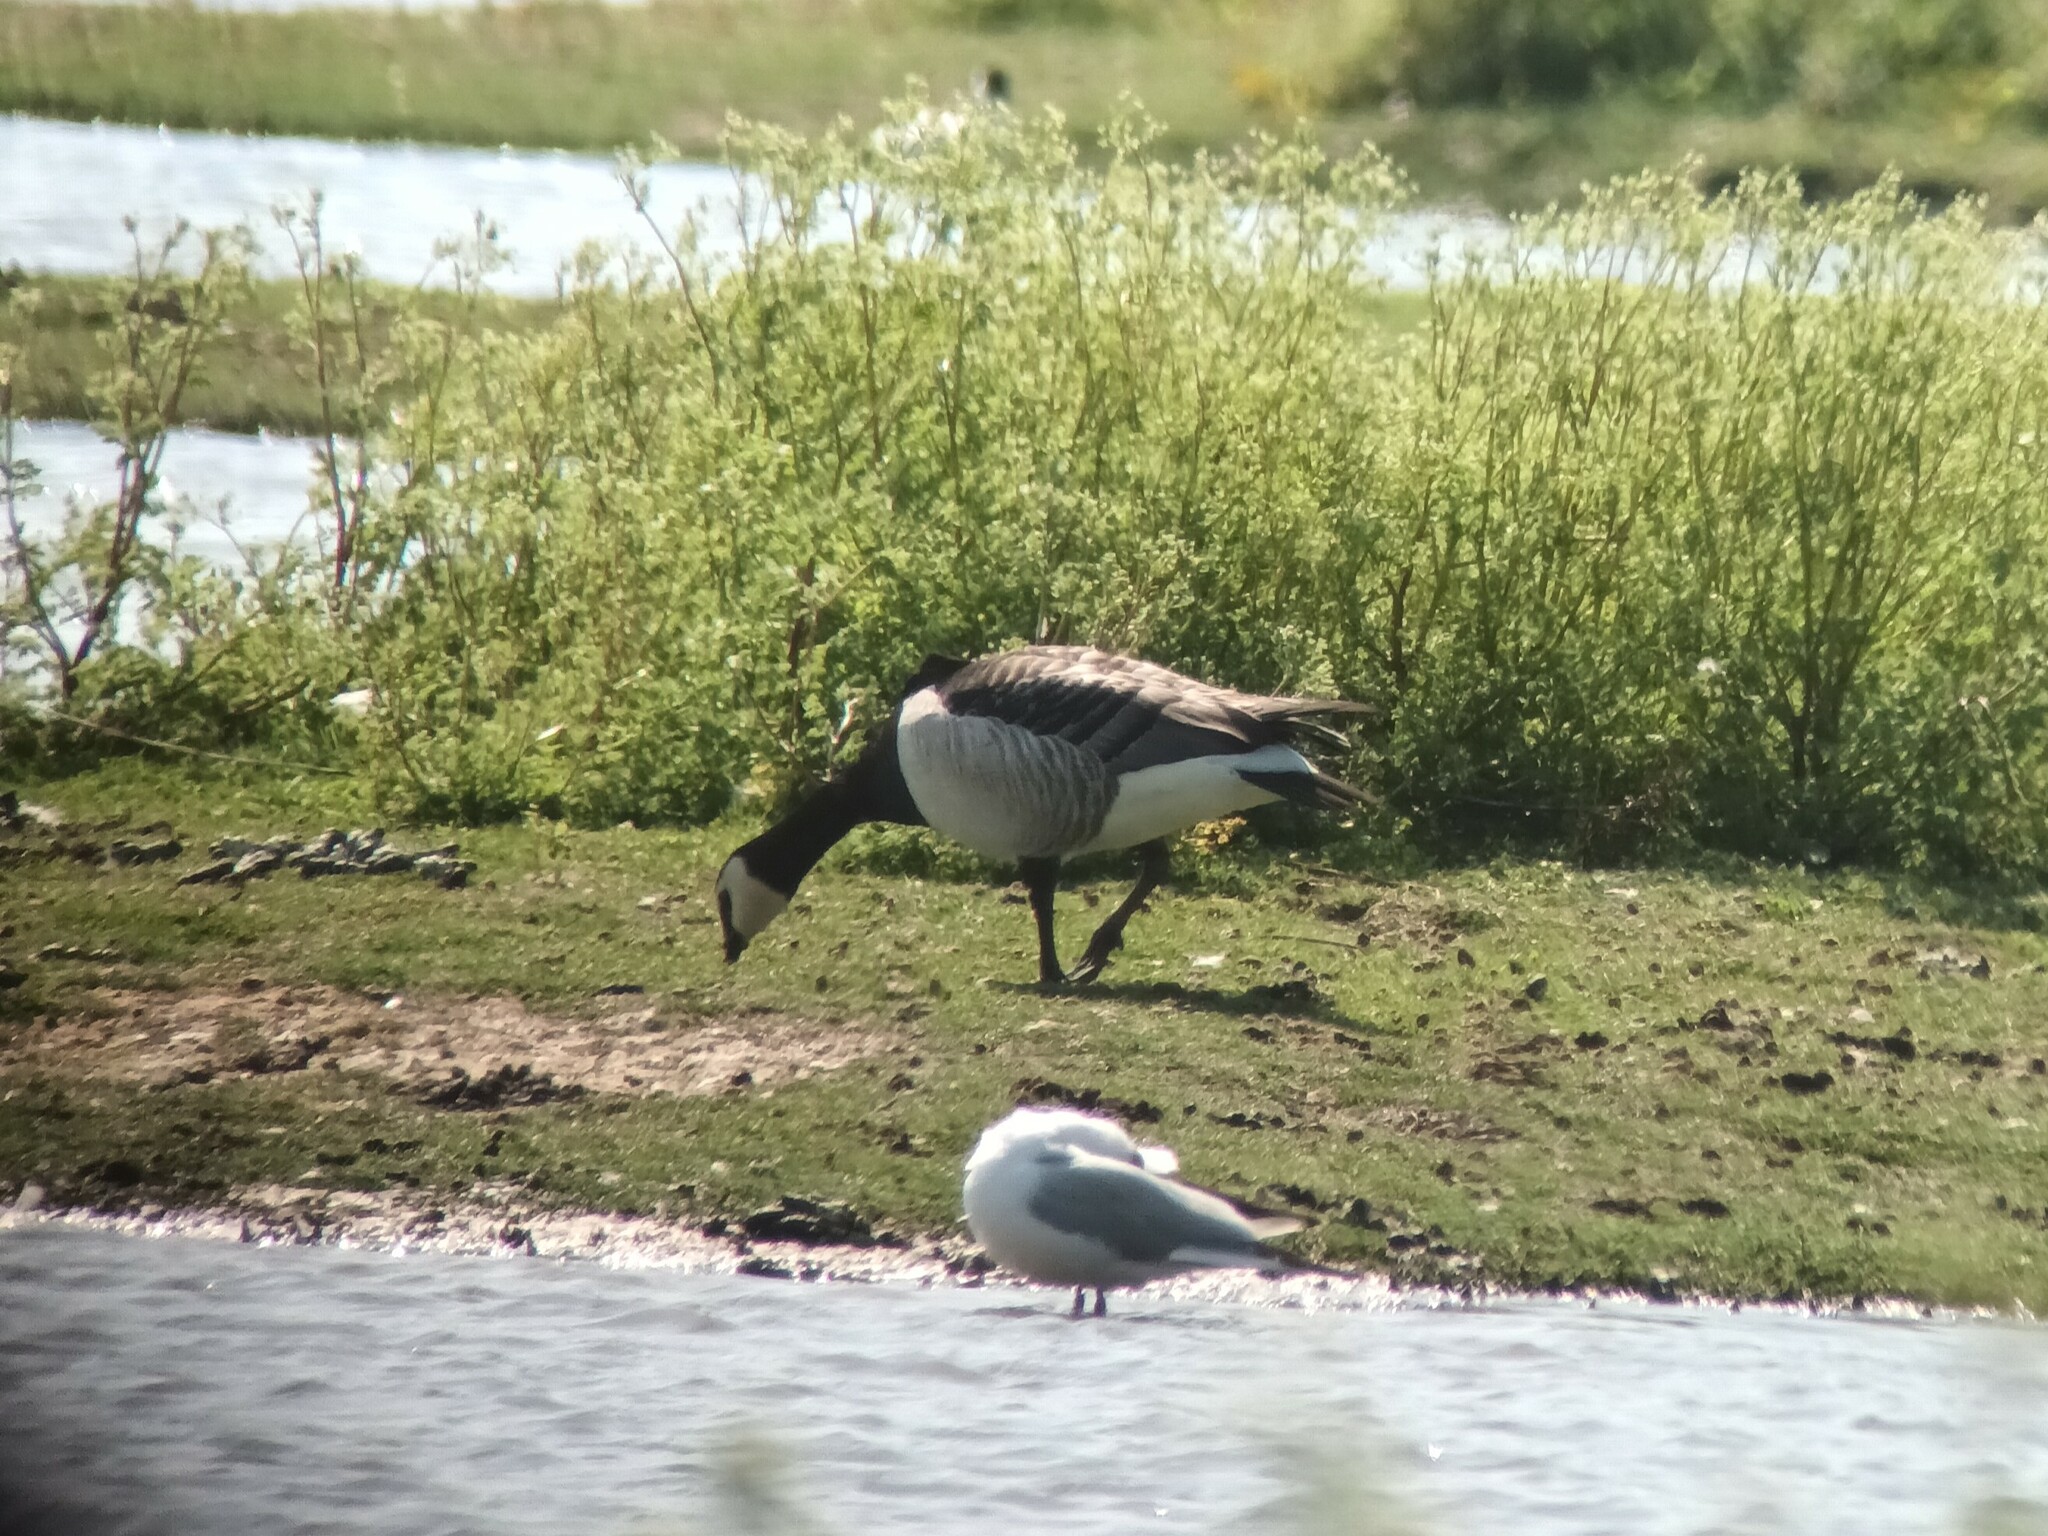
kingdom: Animalia
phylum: Chordata
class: Aves
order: Anseriformes
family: Anatidae
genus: Branta
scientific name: Branta leucopsis
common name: Barnacle goose
